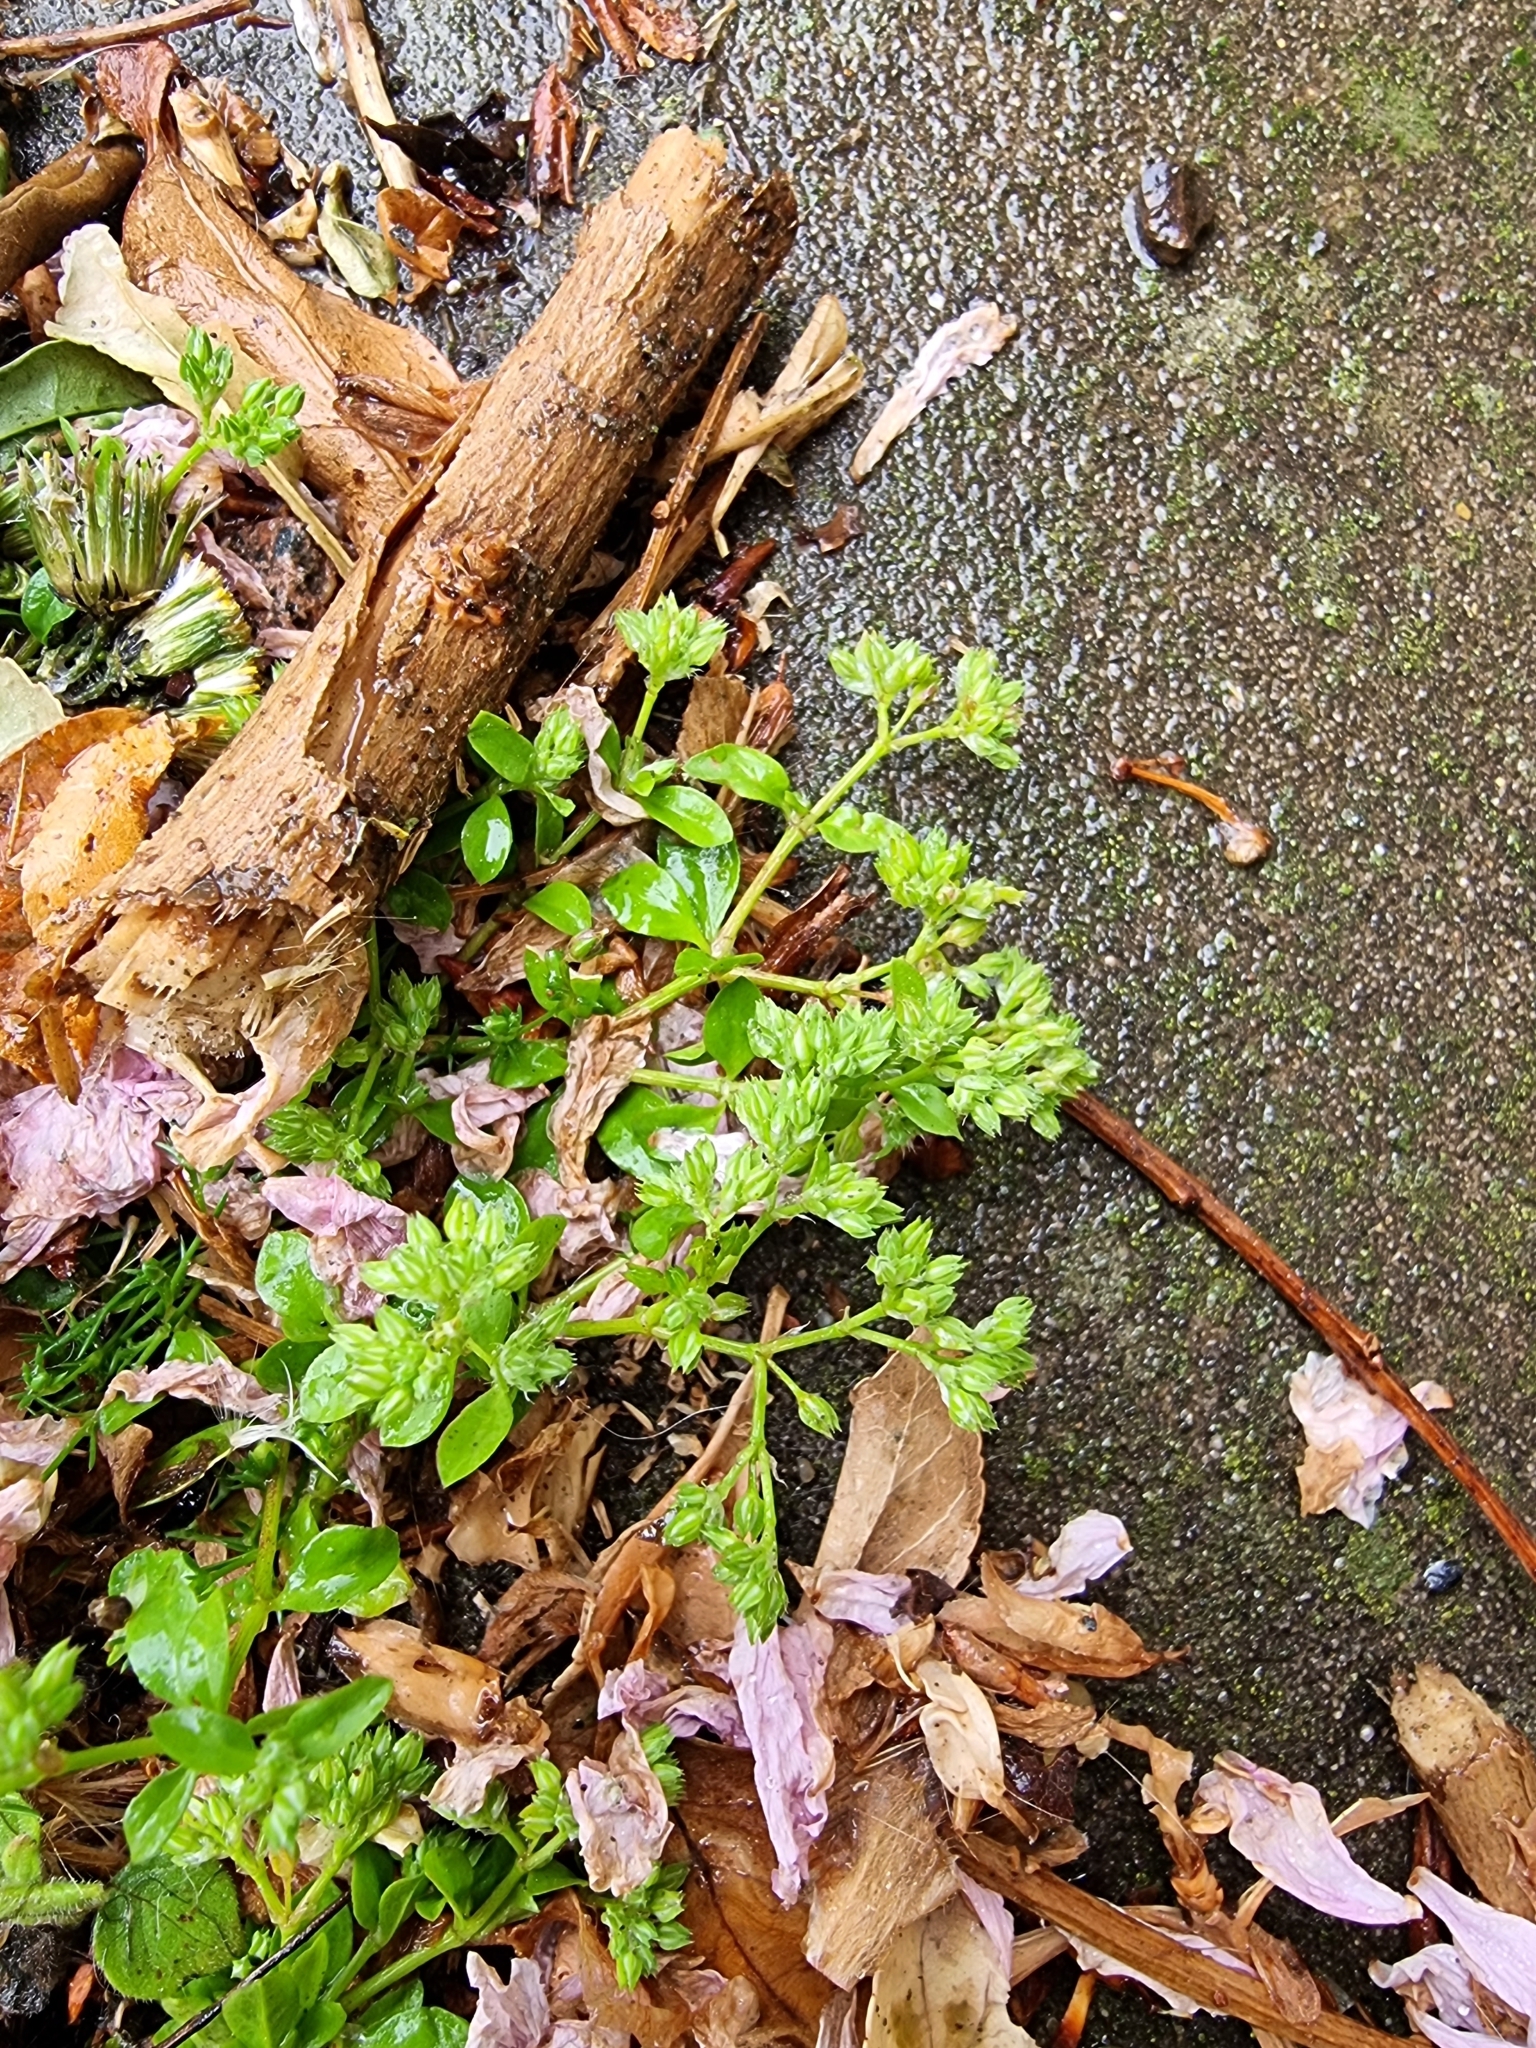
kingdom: Plantae
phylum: Tracheophyta
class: Magnoliopsida
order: Caryophyllales
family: Caryophyllaceae
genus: Polycarpon
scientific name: Polycarpon tetraphyllum
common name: Four-leaved all-seed
